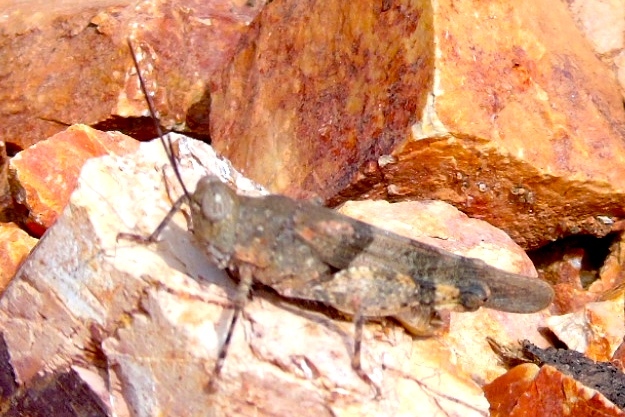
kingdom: Animalia
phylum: Arthropoda
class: Insecta
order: Orthoptera
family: Acrididae
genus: Heliastus
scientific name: Heliastus benjamini
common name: Arroyo grasshopper
